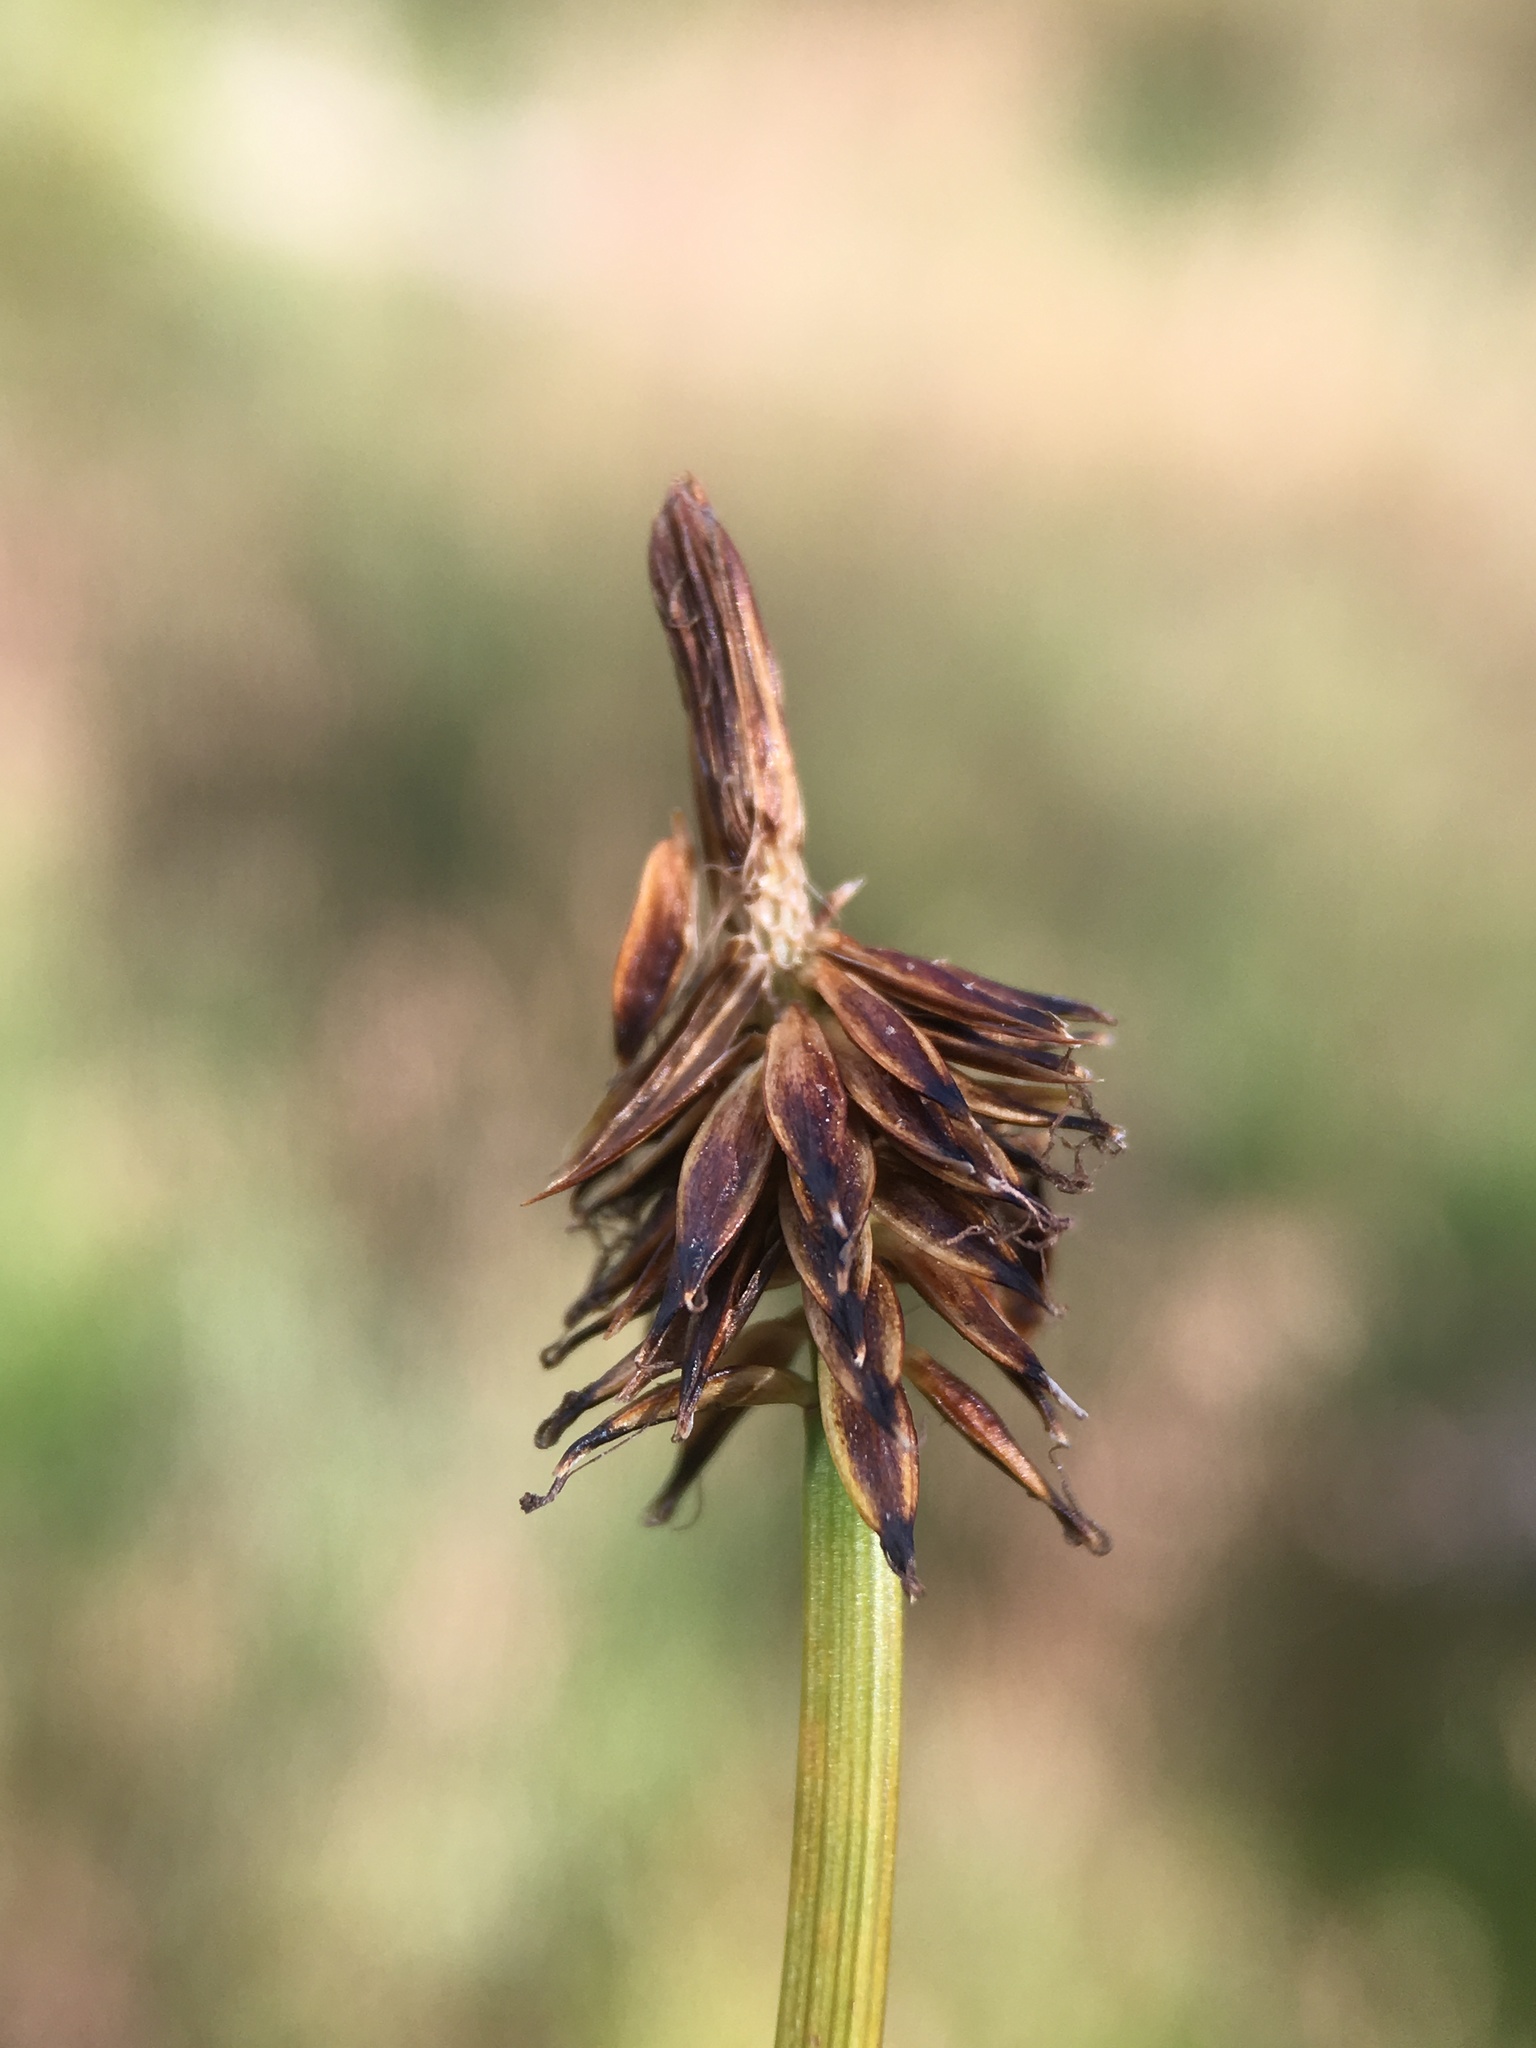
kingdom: Plantae
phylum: Tracheophyta
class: Liliopsida
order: Poales
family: Cyperaceae
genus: Carex
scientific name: Carex nigricans
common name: Black alpine sedge
